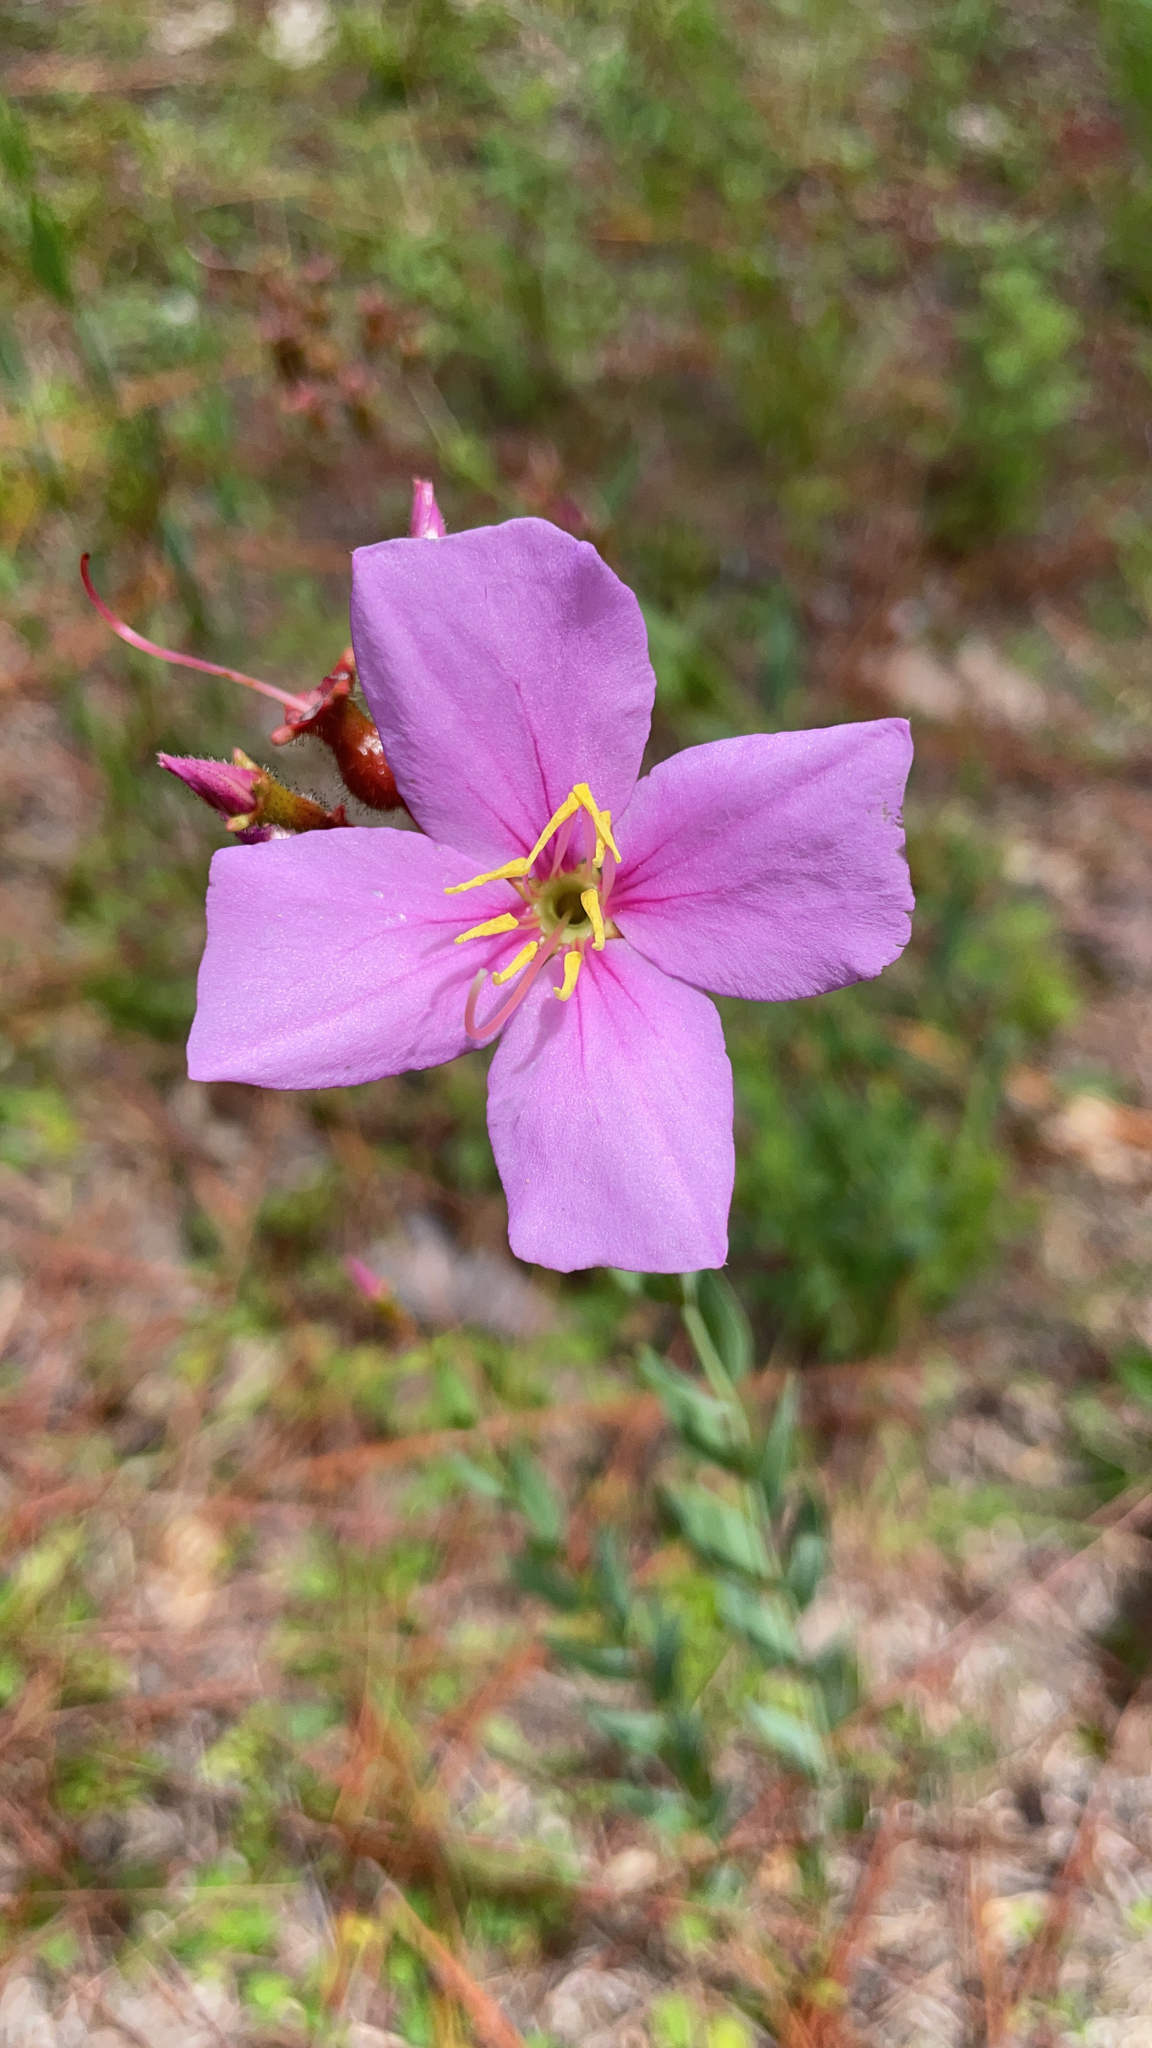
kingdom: Plantae
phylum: Tracheophyta
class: Magnoliopsida
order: Myrtales
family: Melastomataceae
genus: Rhexia
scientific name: Rhexia alifanus
